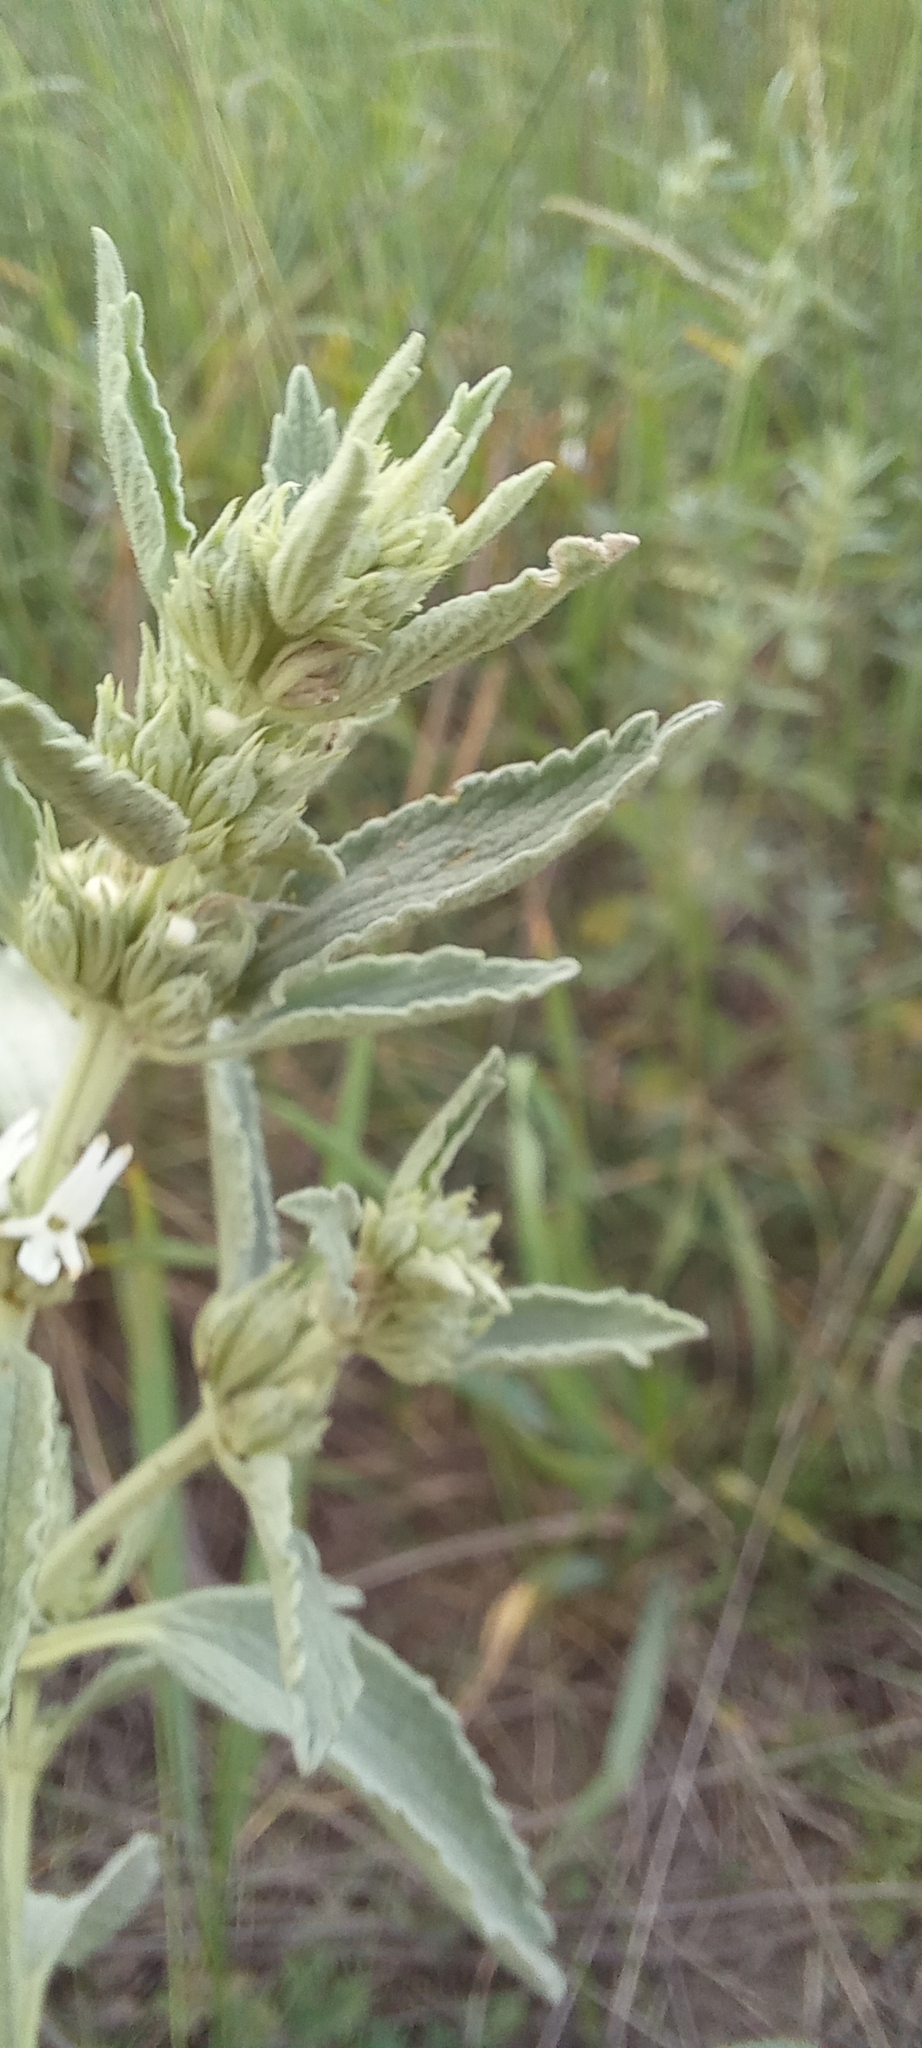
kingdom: Plantae
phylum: Tracheophyta
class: Magnoliopsida
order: Lamiales
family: Lamiaceae
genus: Marrubium
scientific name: Marrubium peregrinum
